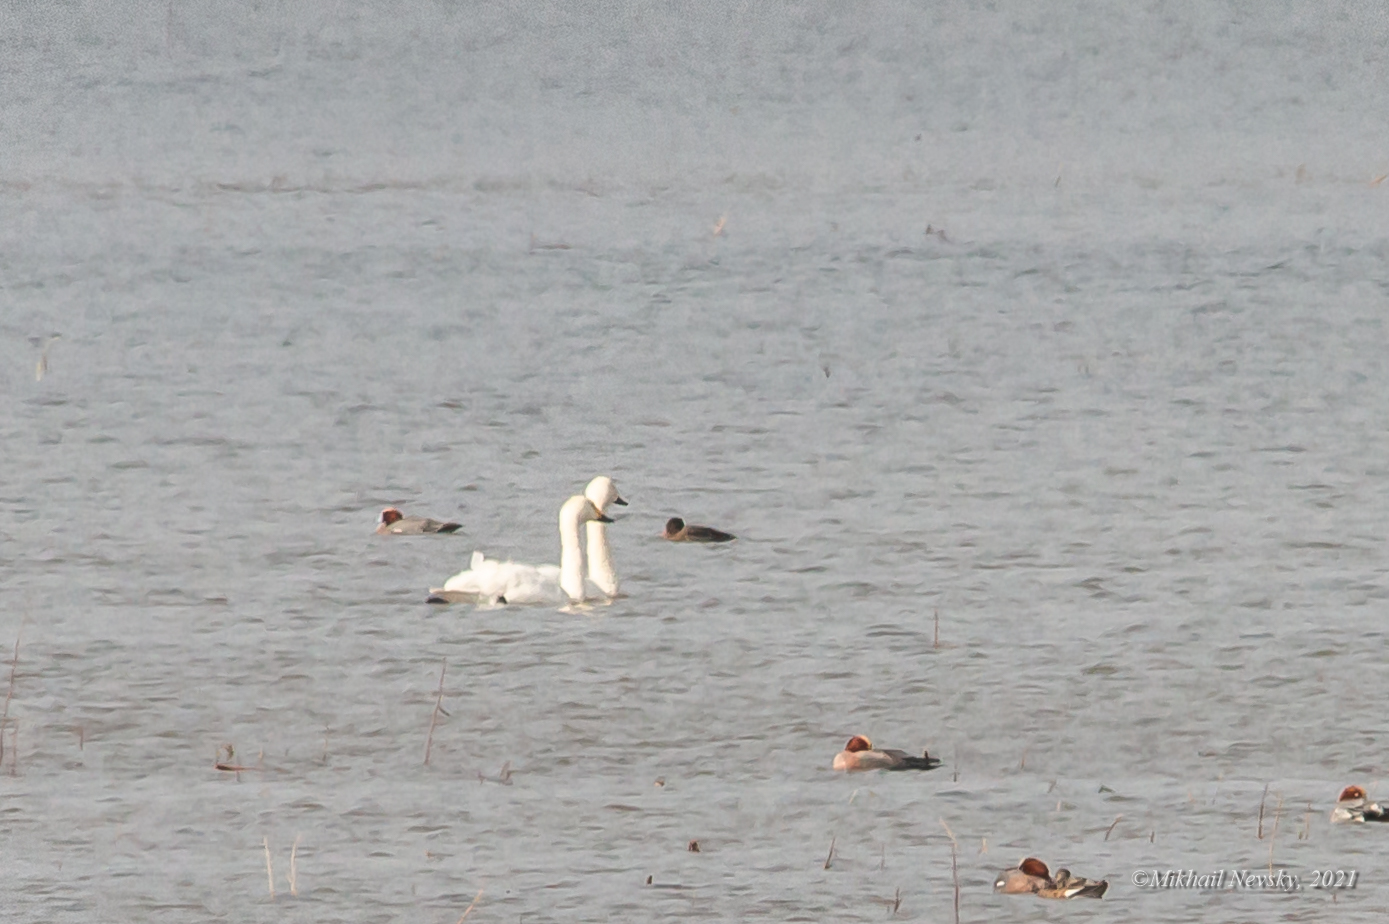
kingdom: Animalia
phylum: Chordata
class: Aves
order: Anseriformes
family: Anatidae
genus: Cygnus
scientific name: Cygnus columbianus
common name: Tundra swan
